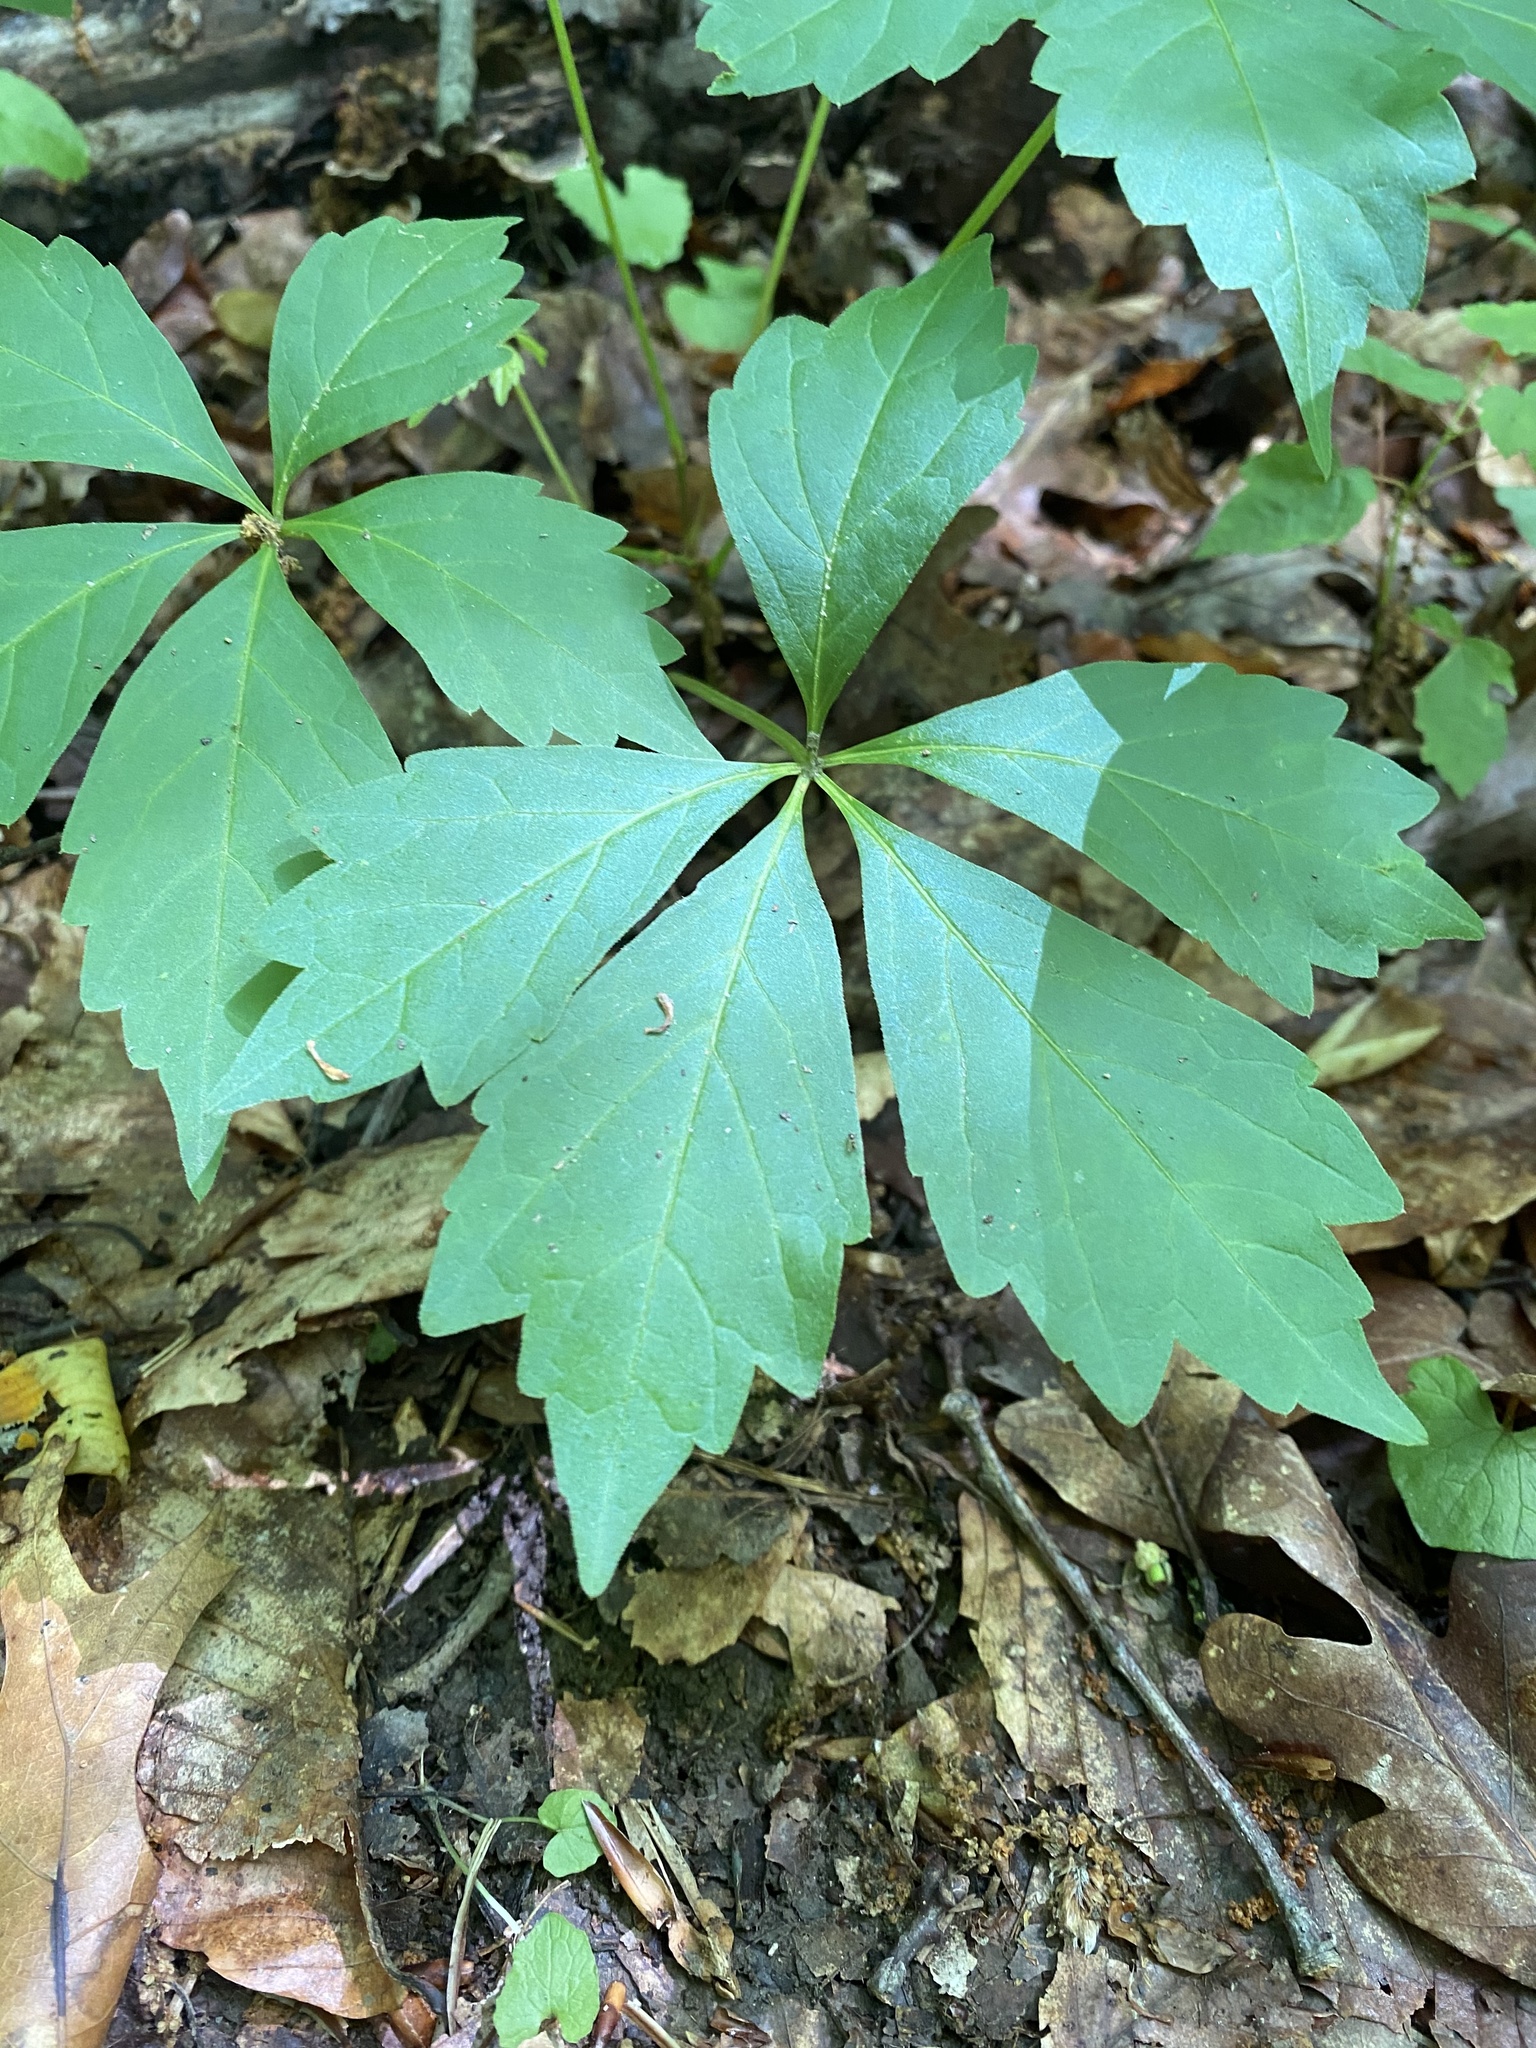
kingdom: Plantae
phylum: Tracheophyta
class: Magnoliopsida
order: Vitales
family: Vitaceae
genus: Parthenocissus
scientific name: Parthenocissus quinquefolia
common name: Virginia-creeper
